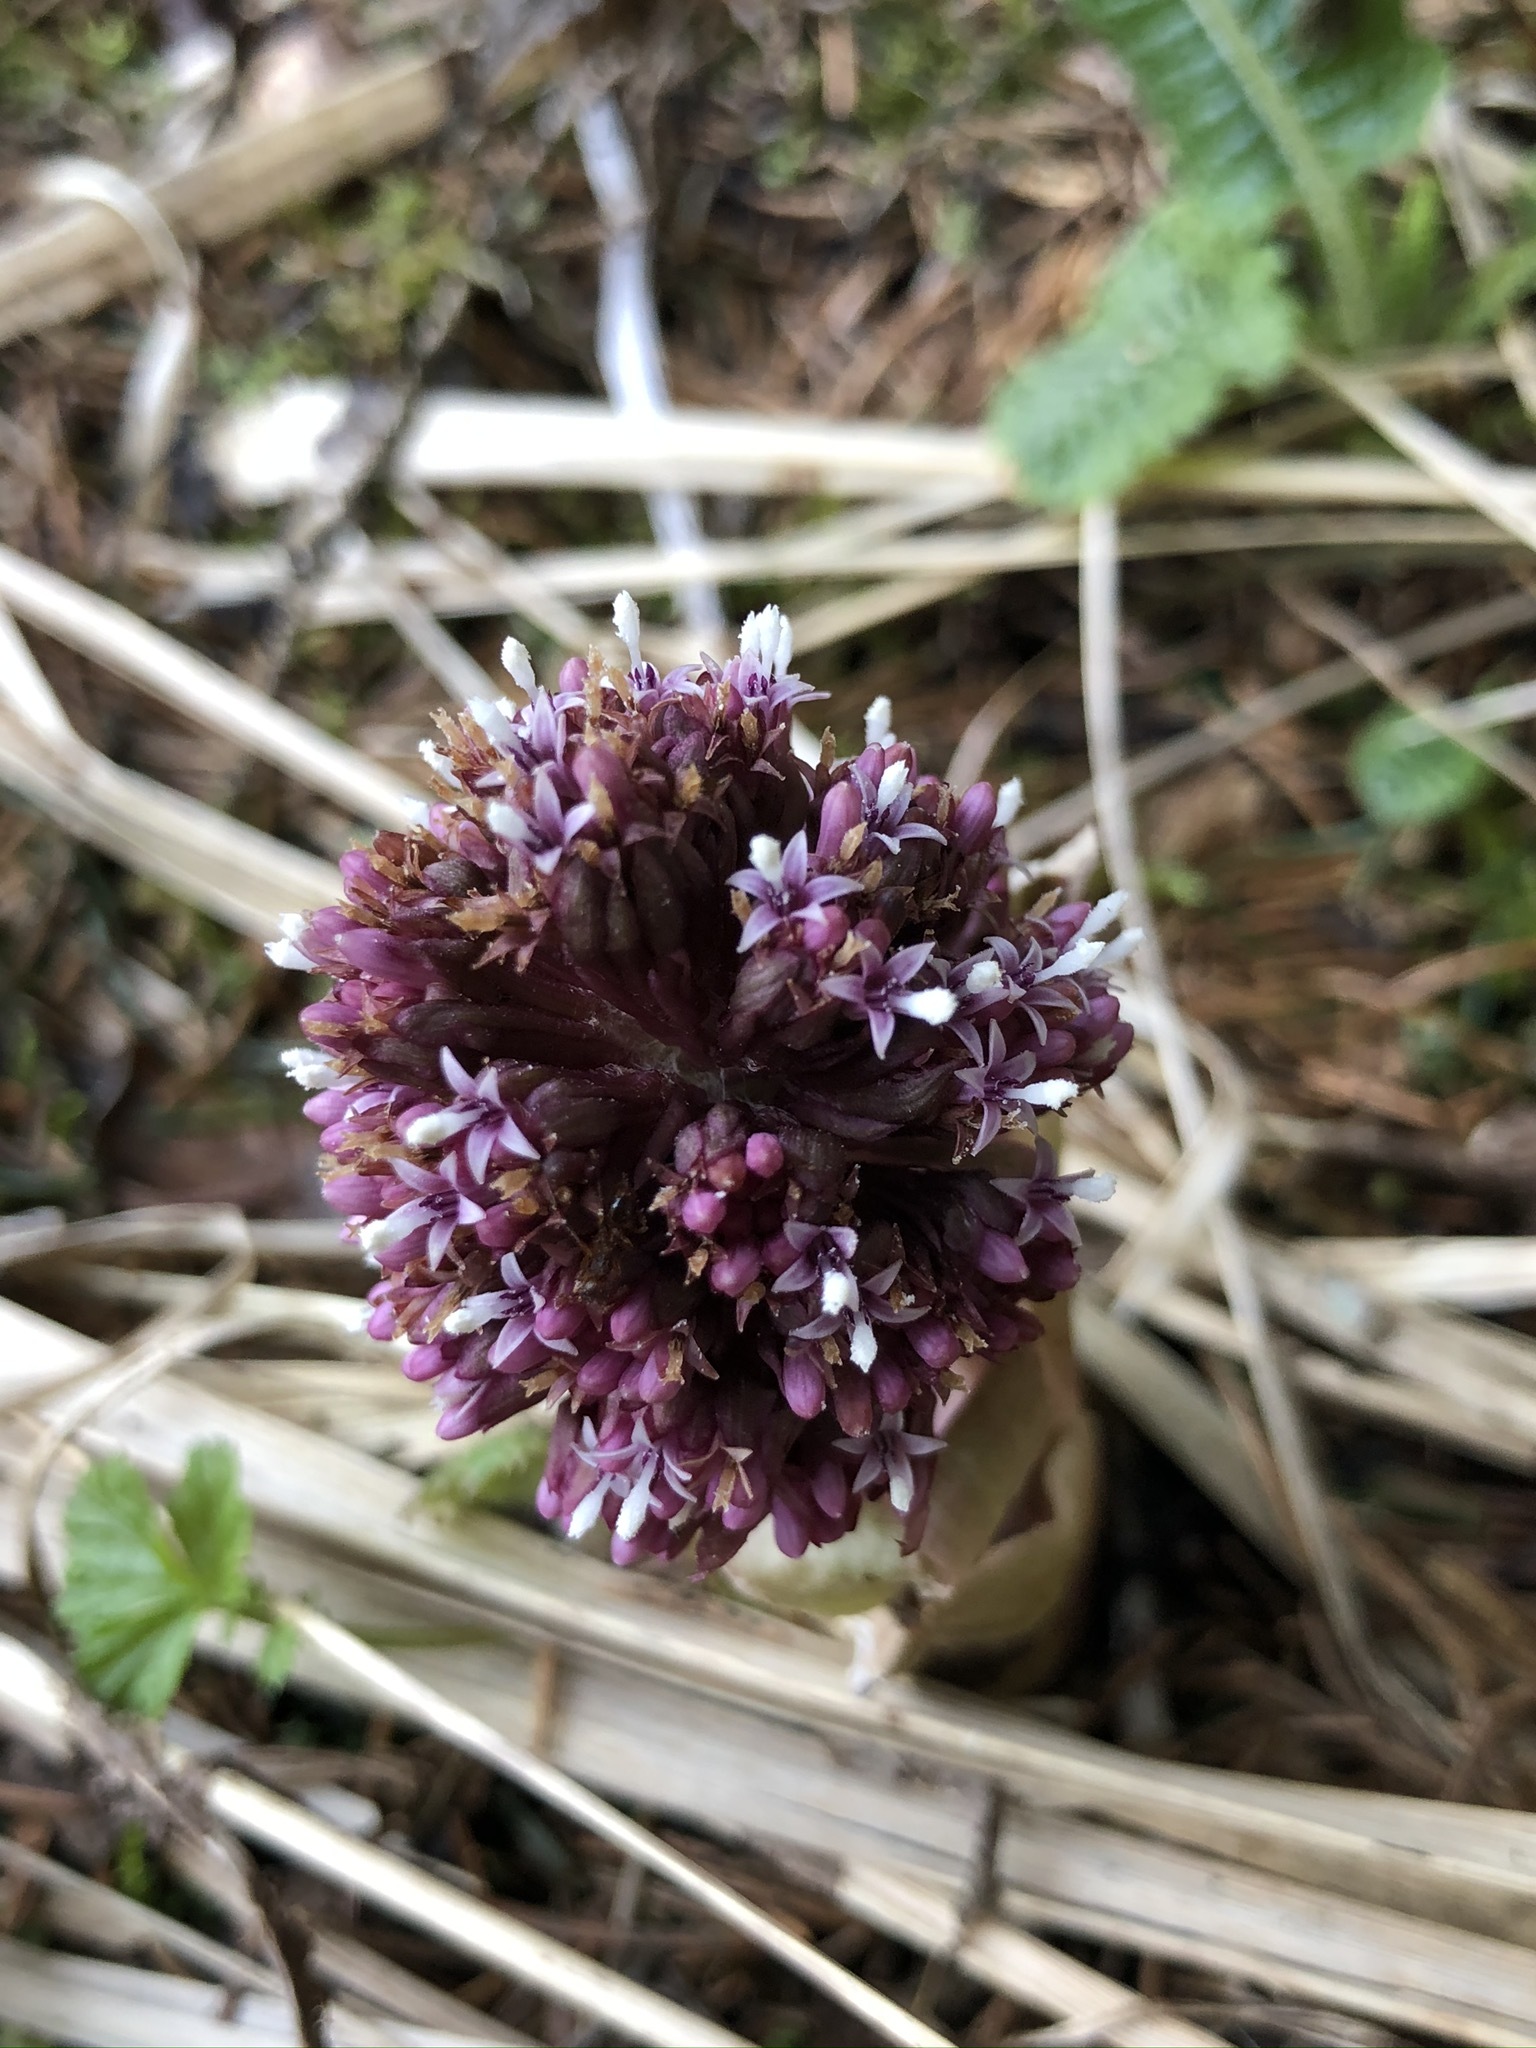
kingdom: Plantae
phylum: Tracheophyta
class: Magnoliopsida
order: Asterales
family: Asteraceae
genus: Petasites
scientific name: Petasites hybridus
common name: Butterbur
